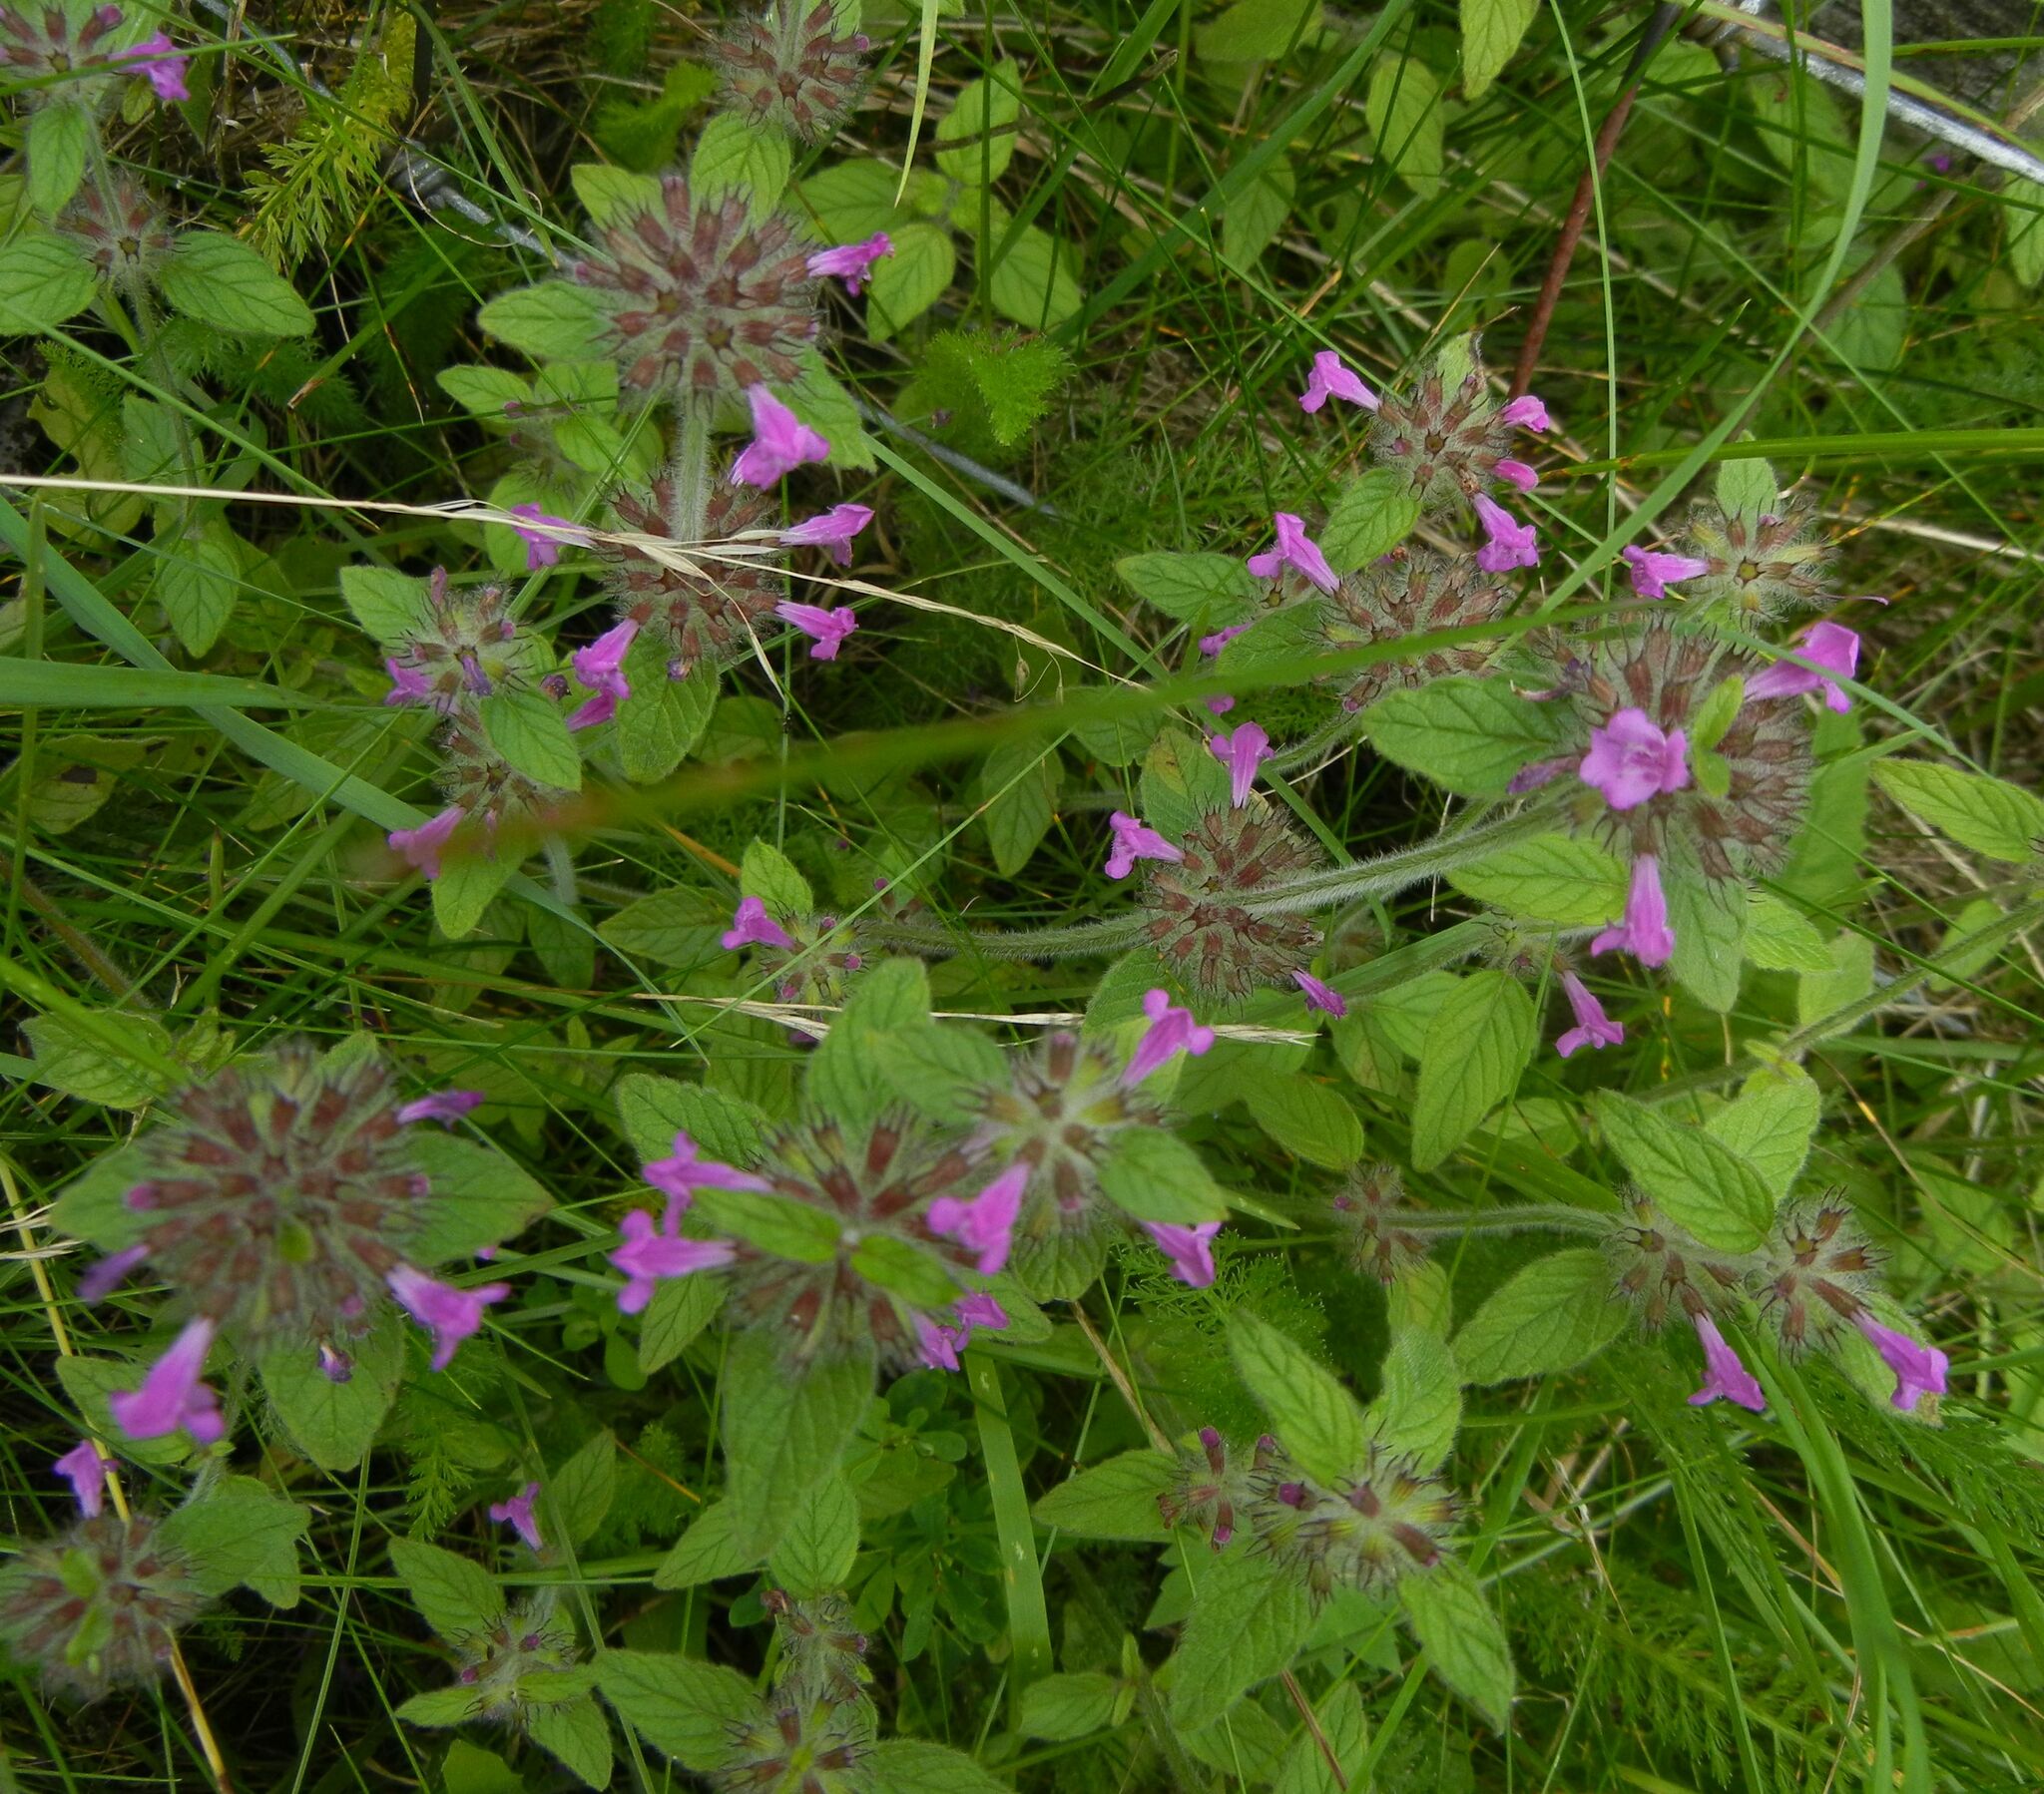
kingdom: Plantae
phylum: Tracheophyta
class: Magnoliopsida
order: Lamiales
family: Lamiaceae
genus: Clinopodium
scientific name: Clinopodium vulgare
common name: Wild basil
